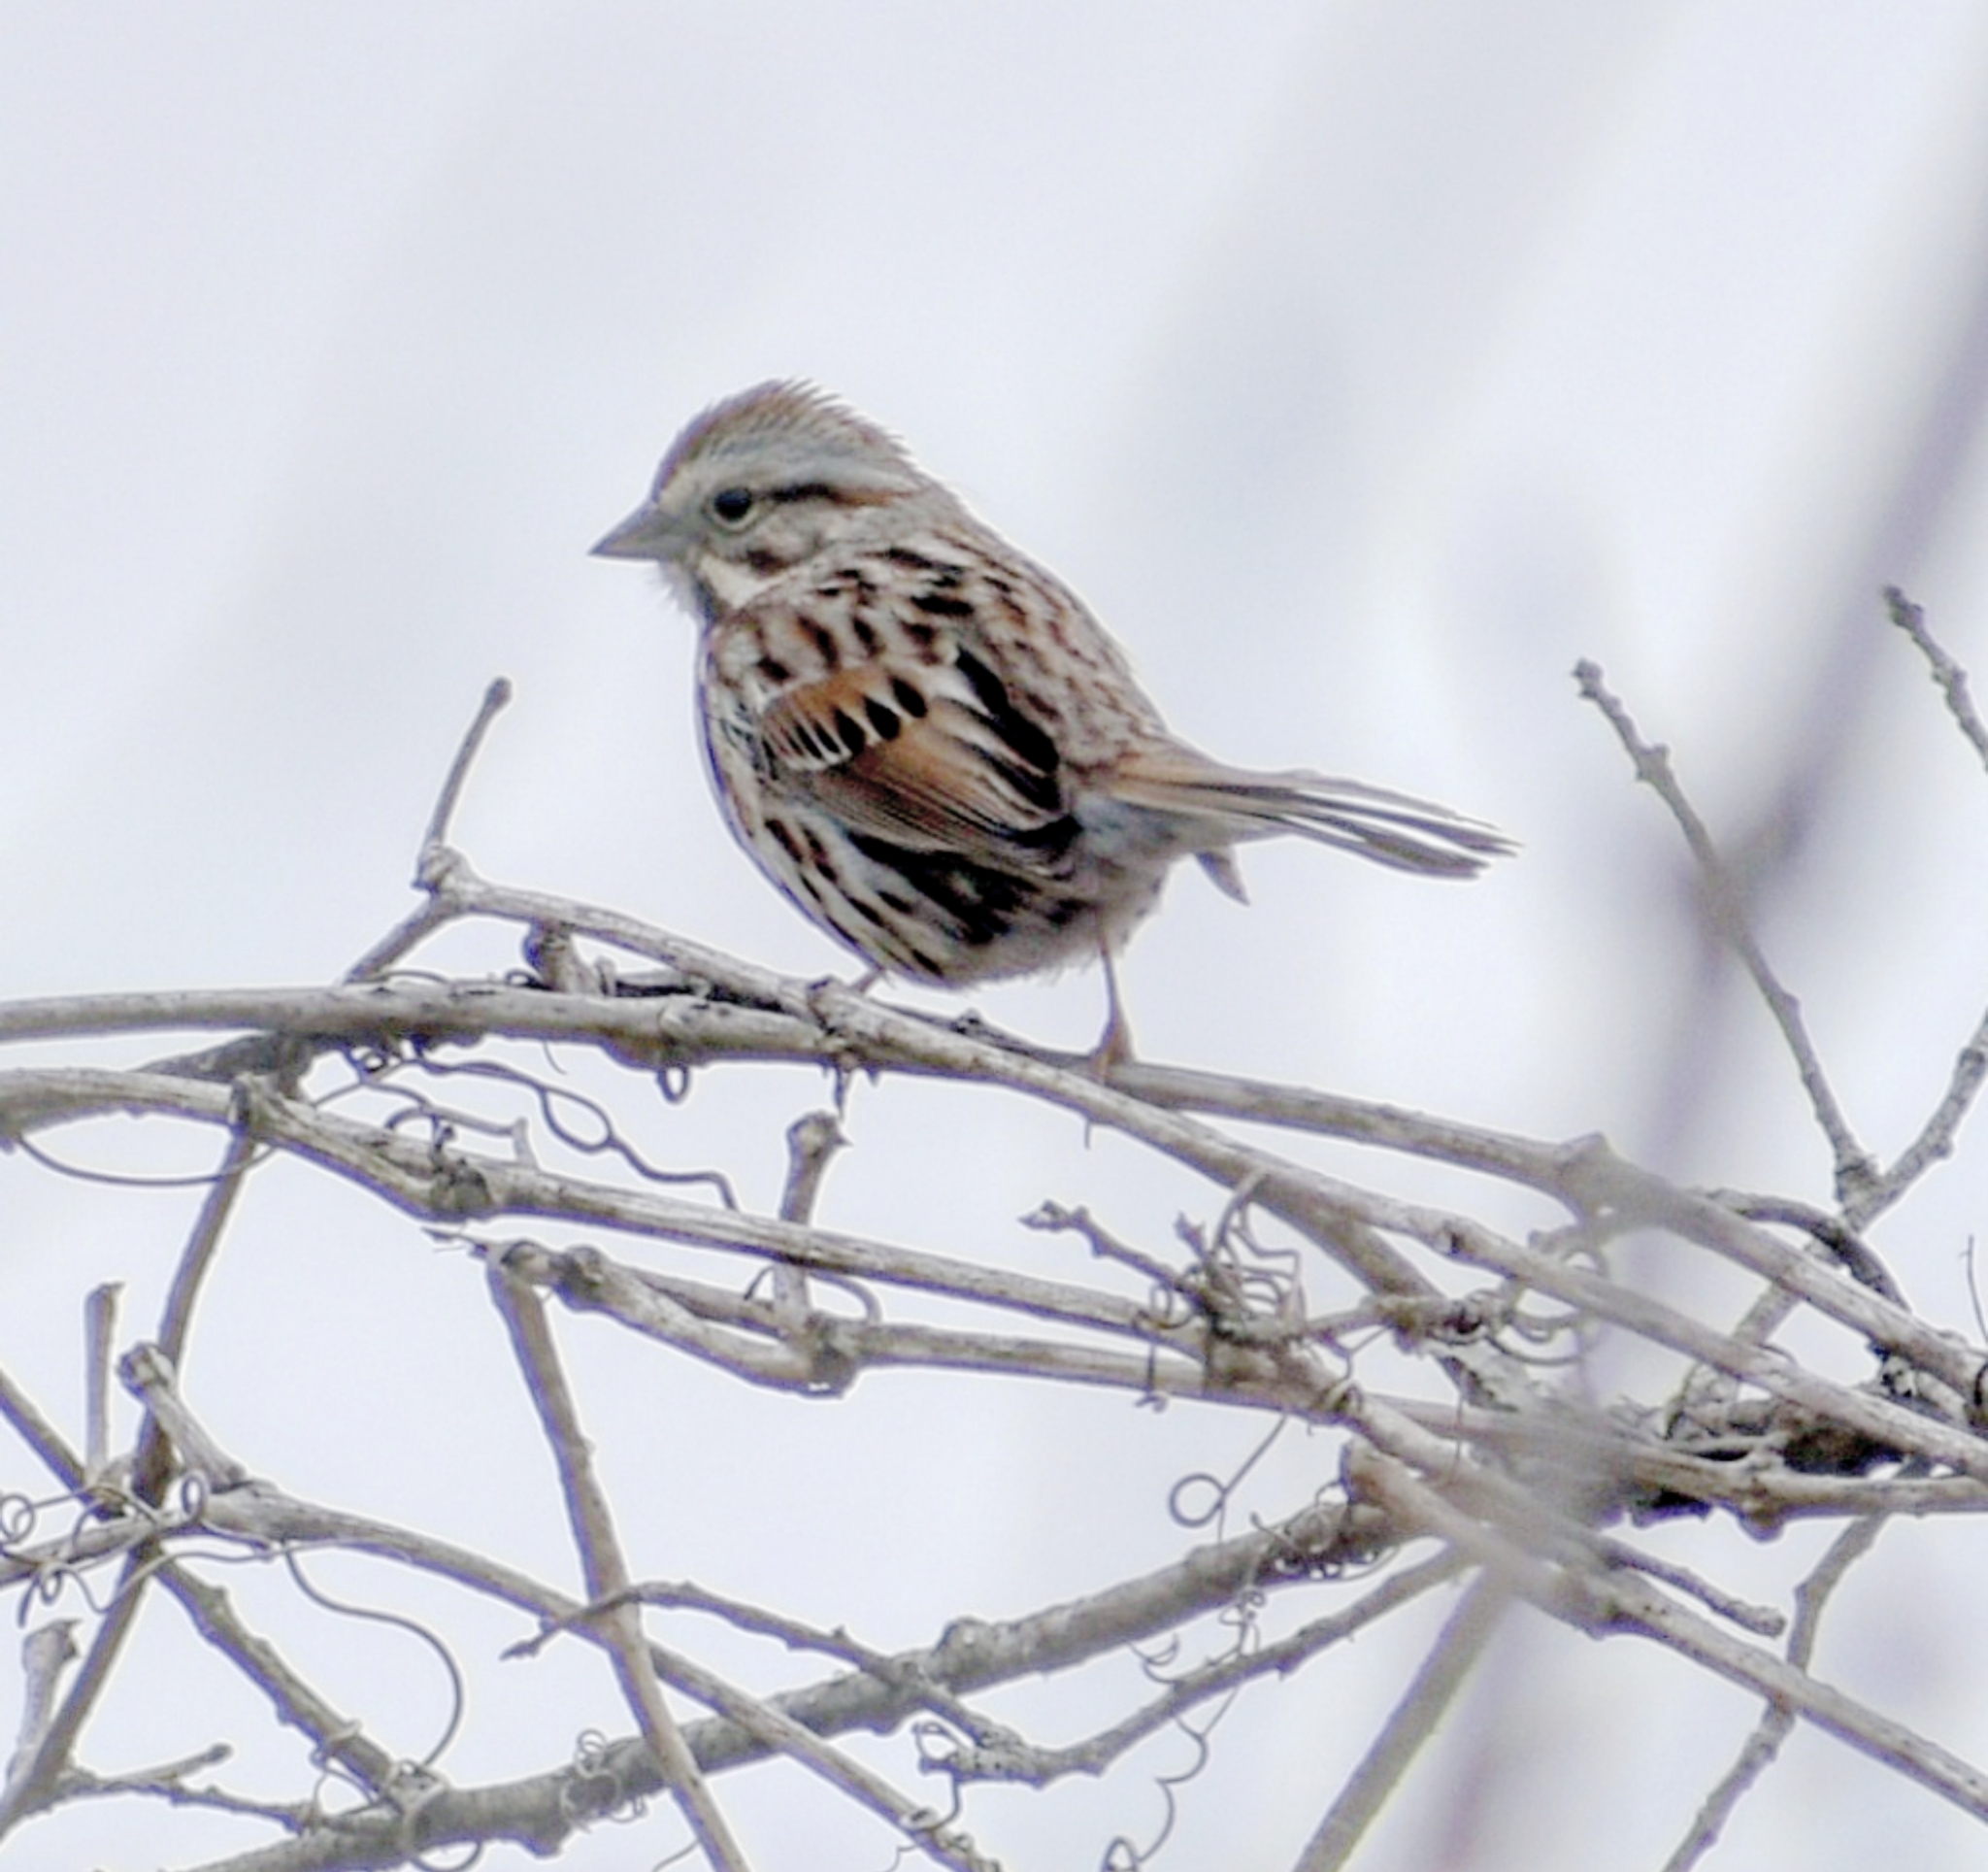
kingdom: Animalia
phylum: Chordata
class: Aves
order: Passeriformes
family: Passerellidae
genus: Melospiza
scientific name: Melospiza melodia
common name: Song sparrow
